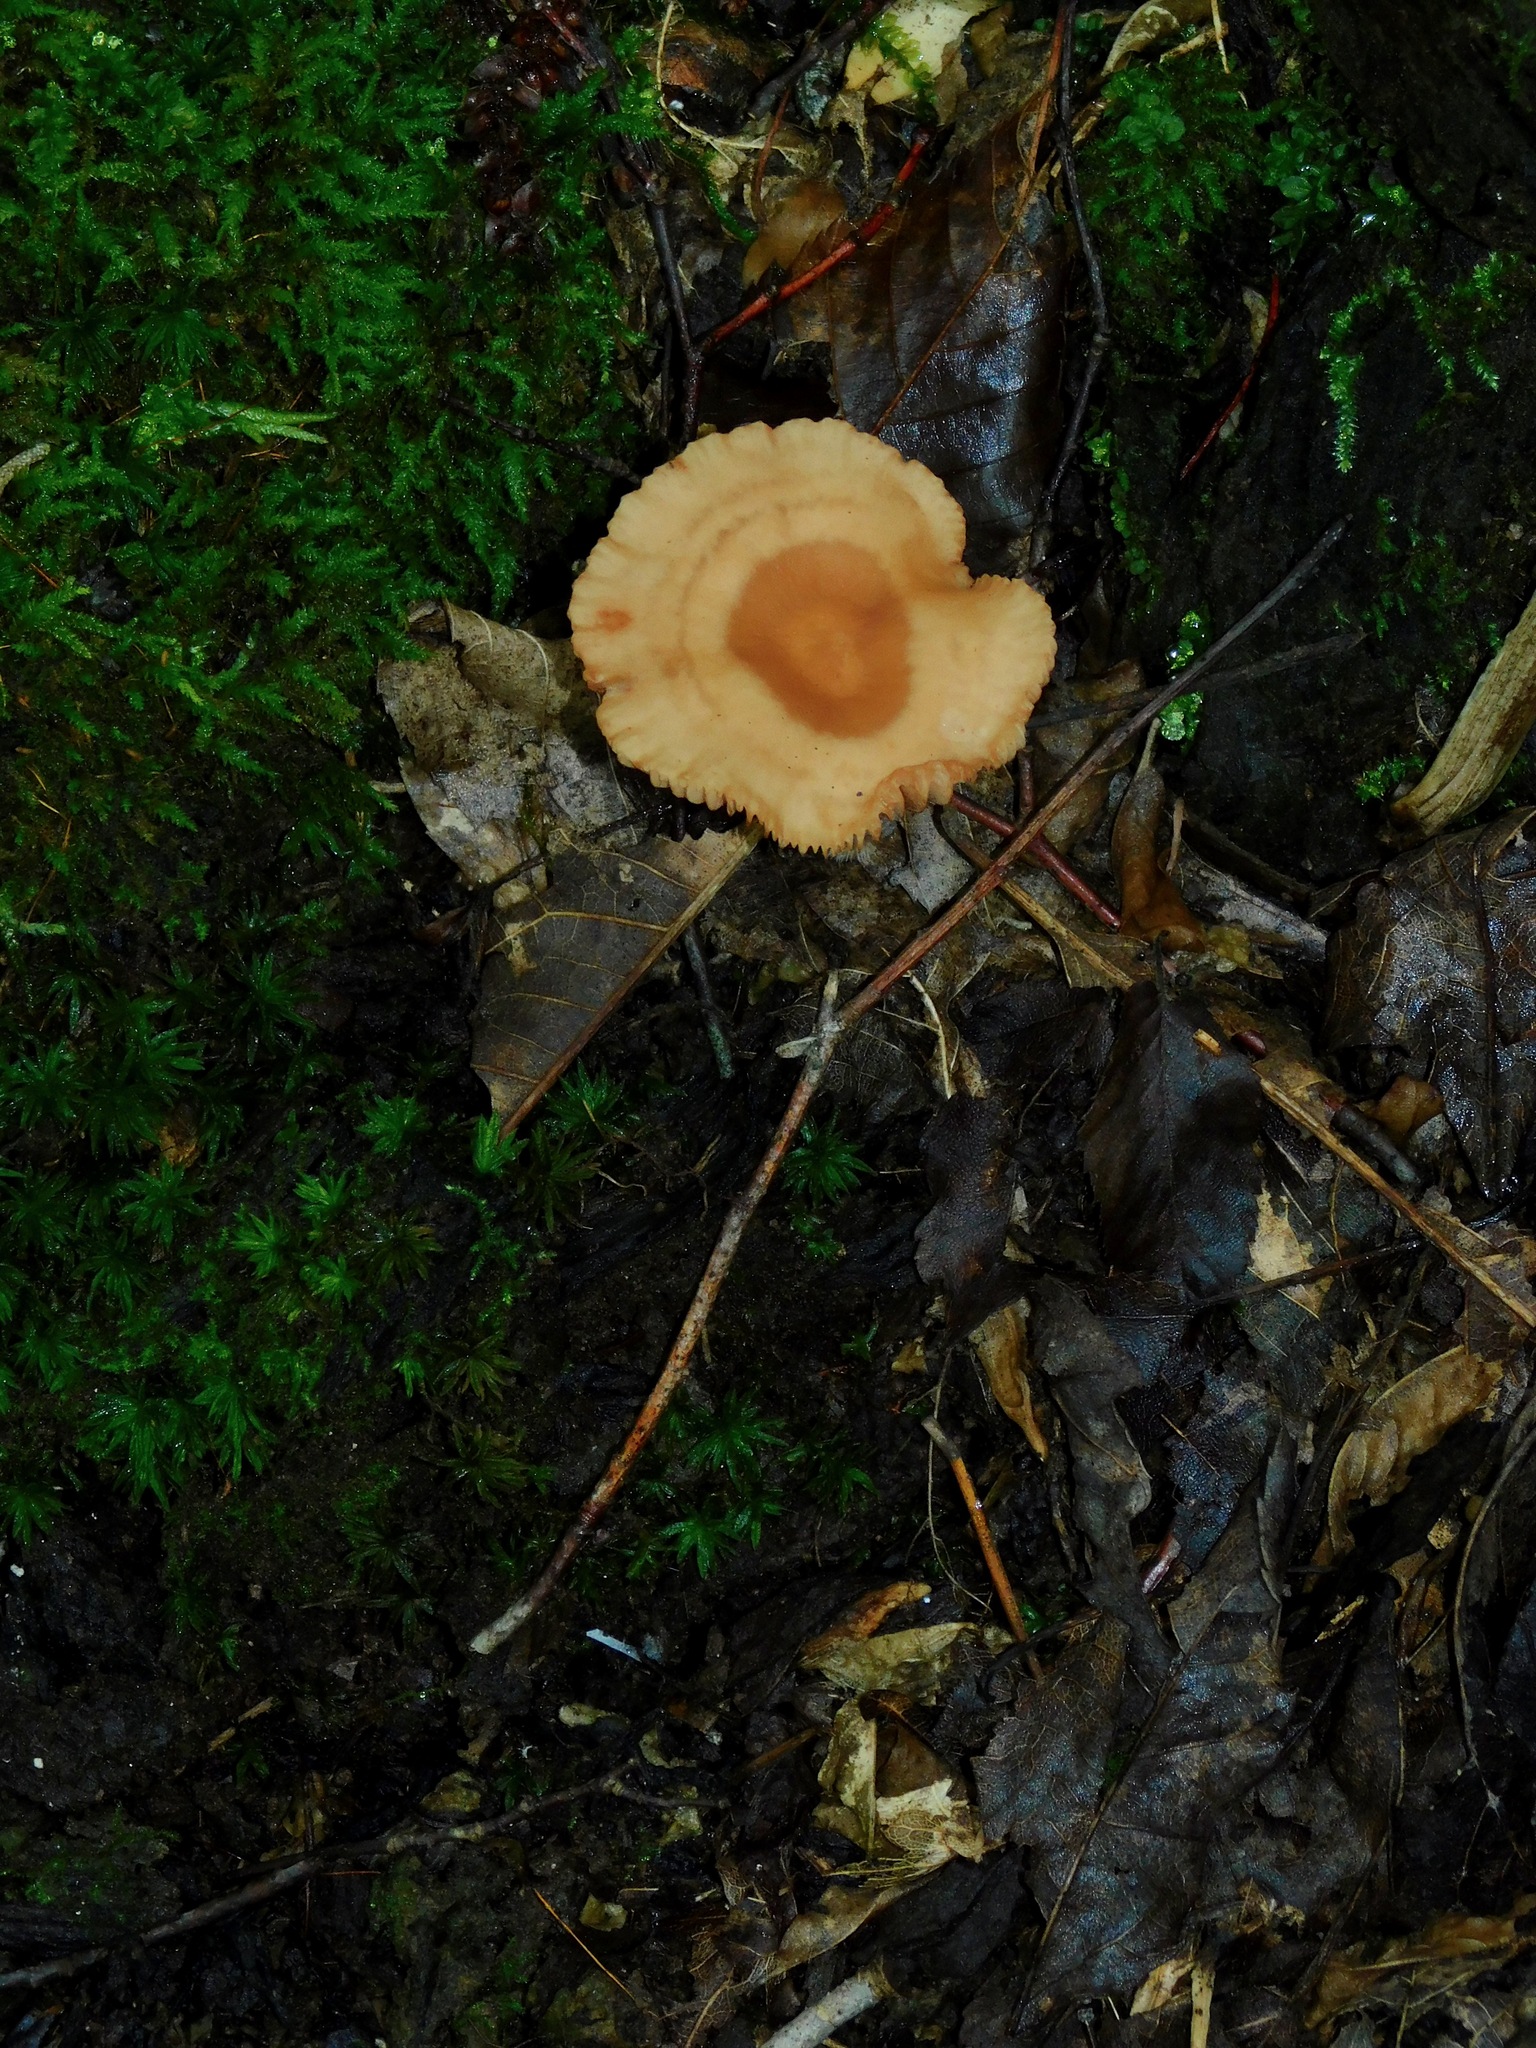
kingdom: Fungi
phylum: Basidiomycota
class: Agaricomycetes
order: Agaricales
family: Hydnangiaceae
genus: Laccaria
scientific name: Laccaria laccata
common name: Deceiver
